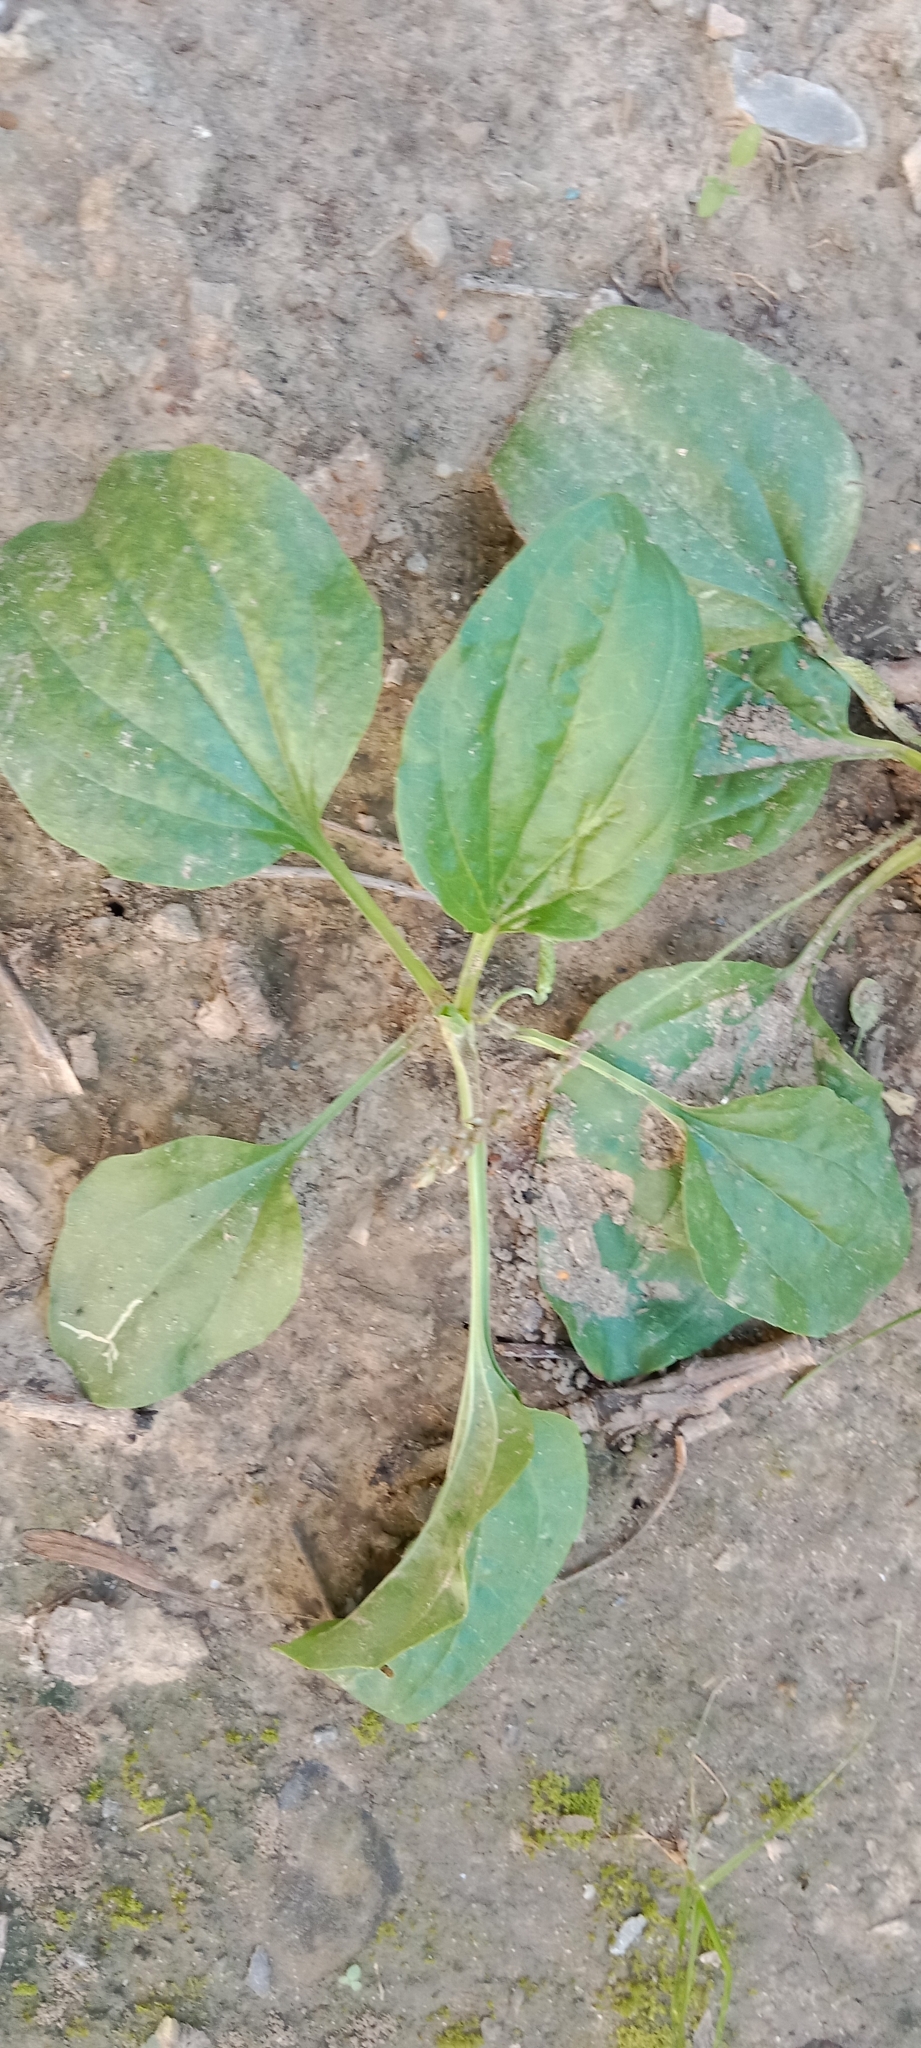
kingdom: Plantae
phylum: Tracheophyta
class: Magnoliopsida
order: Lamiales
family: Plantaginaceae
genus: Plantago
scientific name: Plantago major
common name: Common plantain
